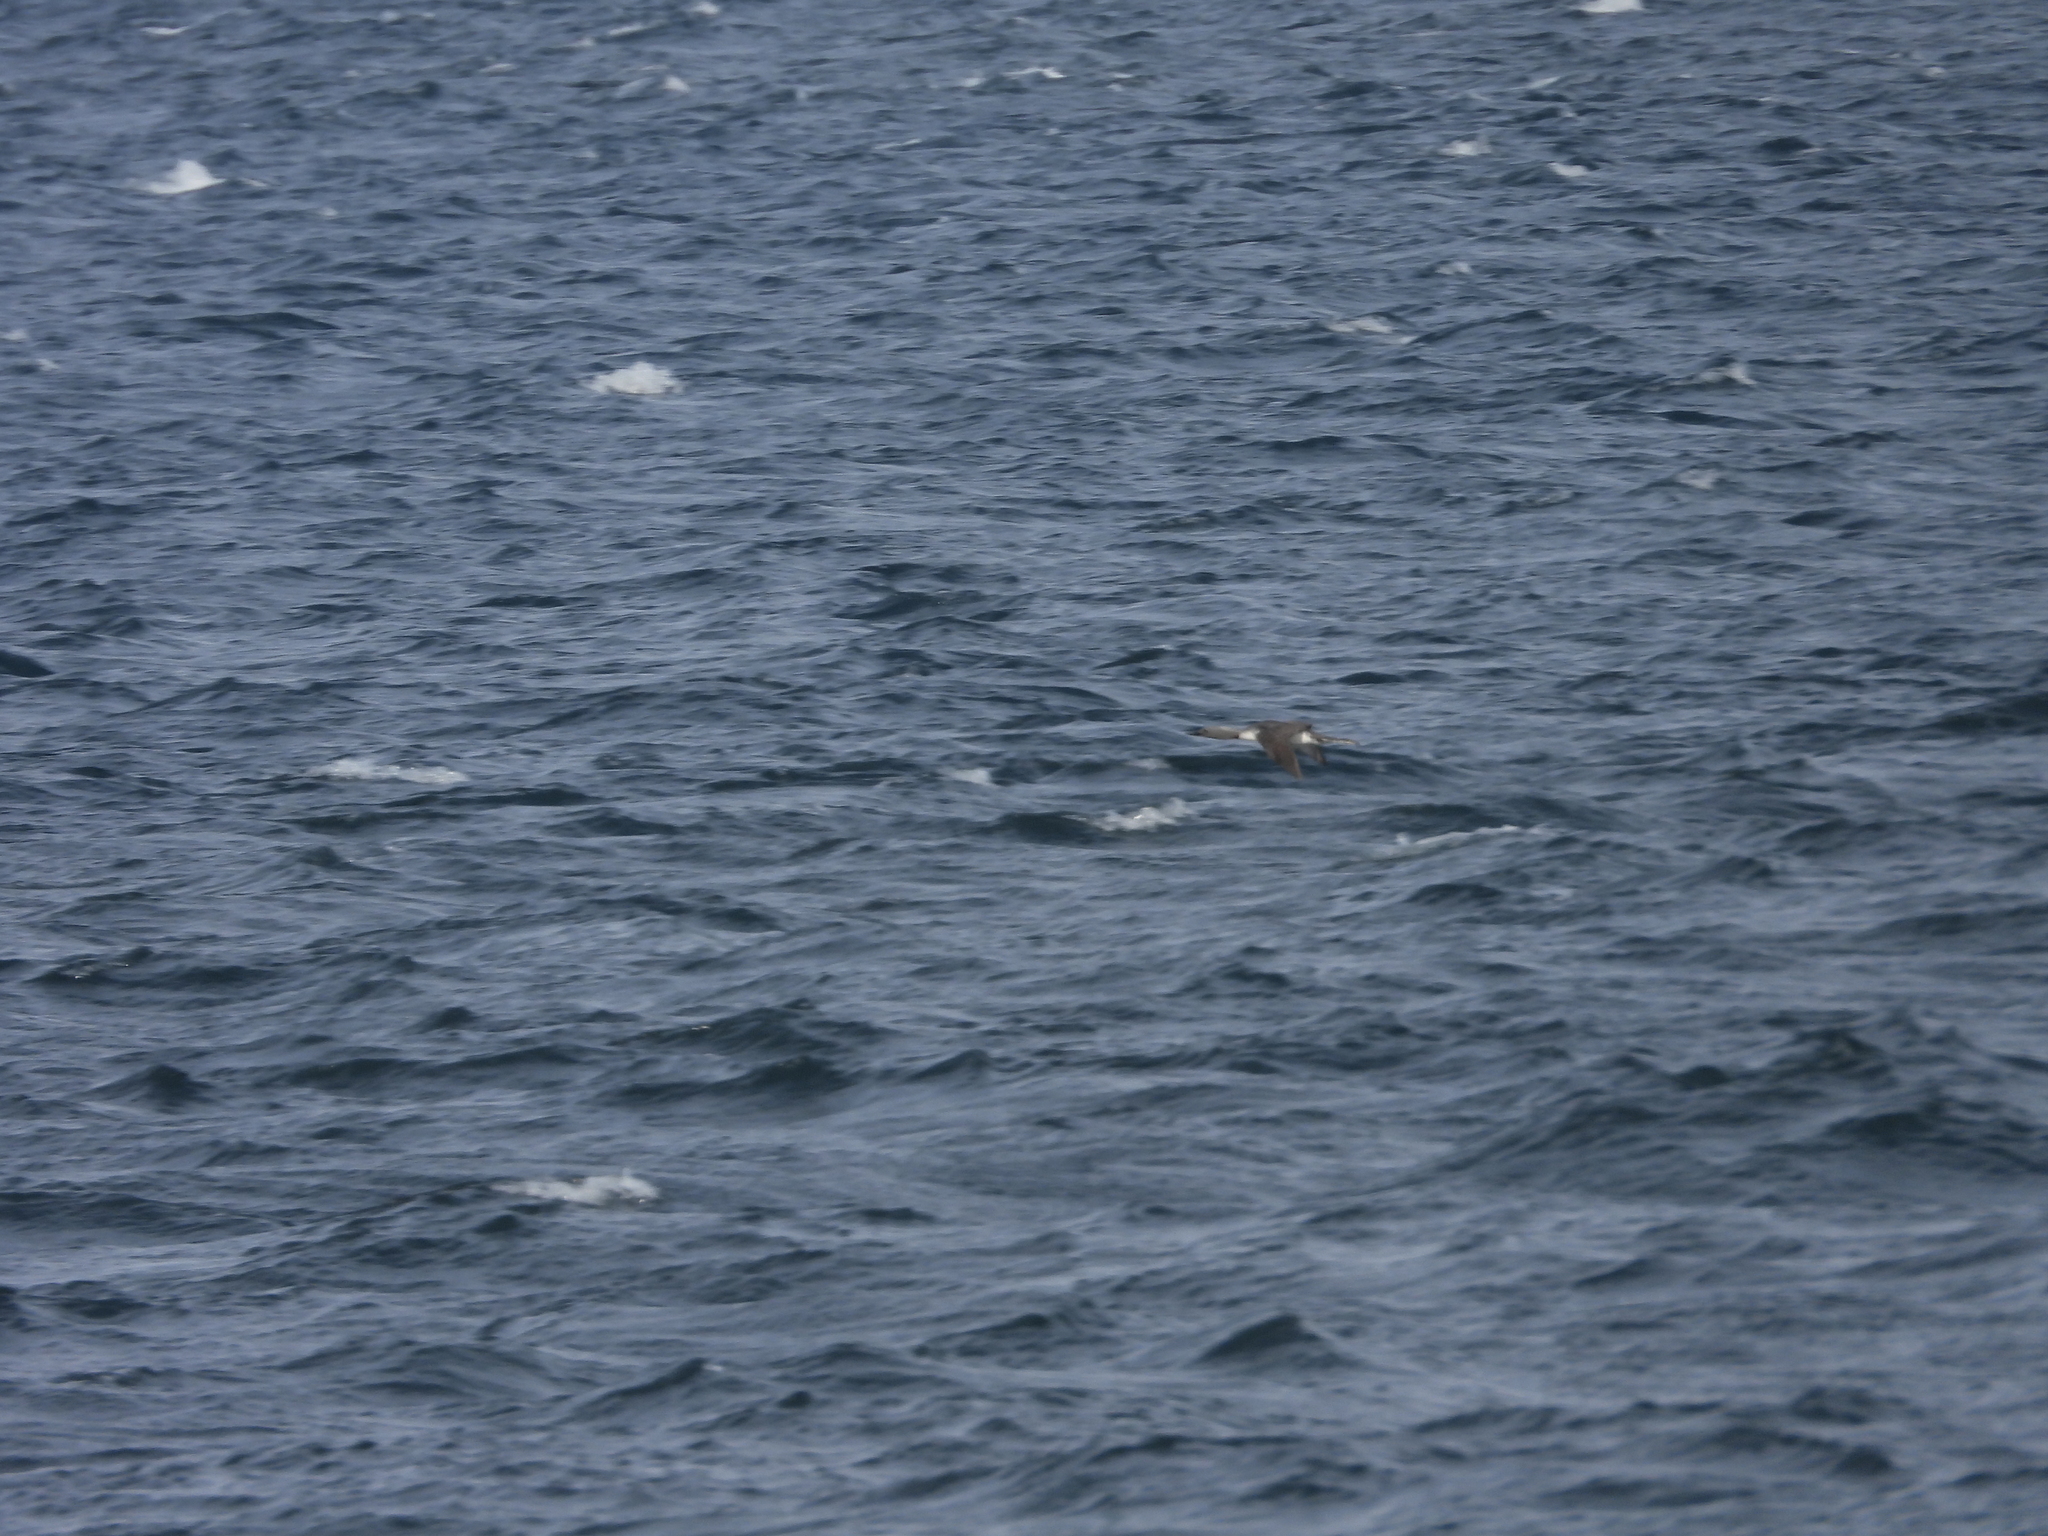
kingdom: Animalia
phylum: Chordata
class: Aves
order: Gaviiformes
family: Gaviidae
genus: Gavia
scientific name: Gavia stellata
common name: Red-throated loon
